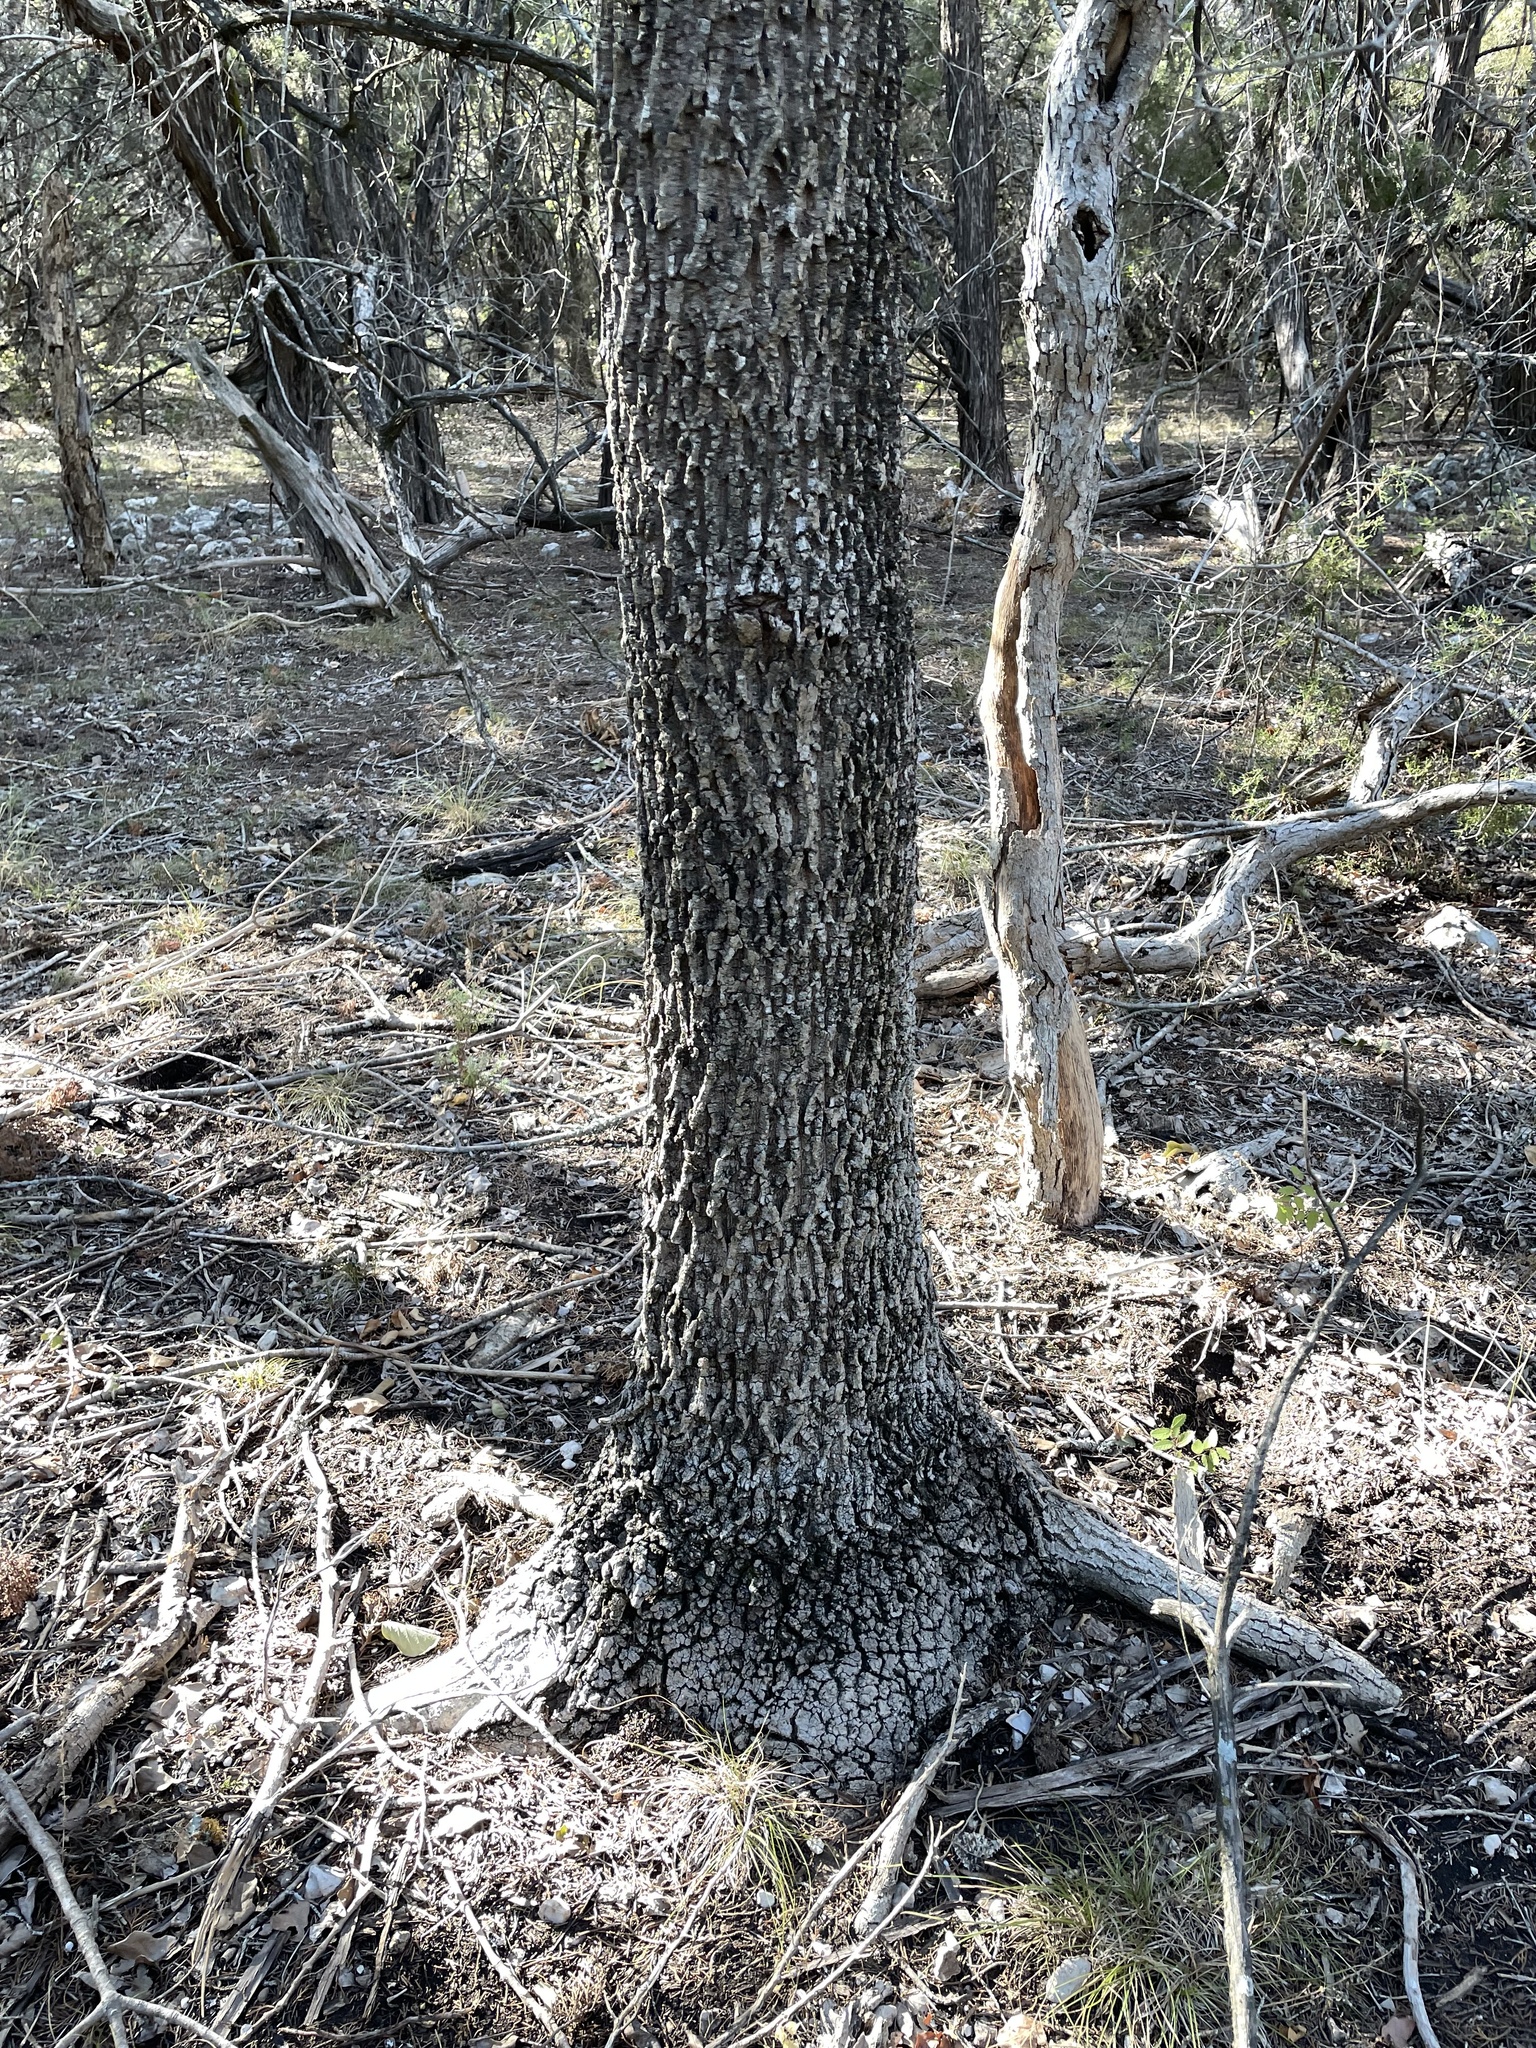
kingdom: Plantae
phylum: Tracheophyta
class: Magnoliopsida
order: Lamiales
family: Oleaceae
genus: Fraxinus
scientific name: Fraxinus albicans
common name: Texas ash
